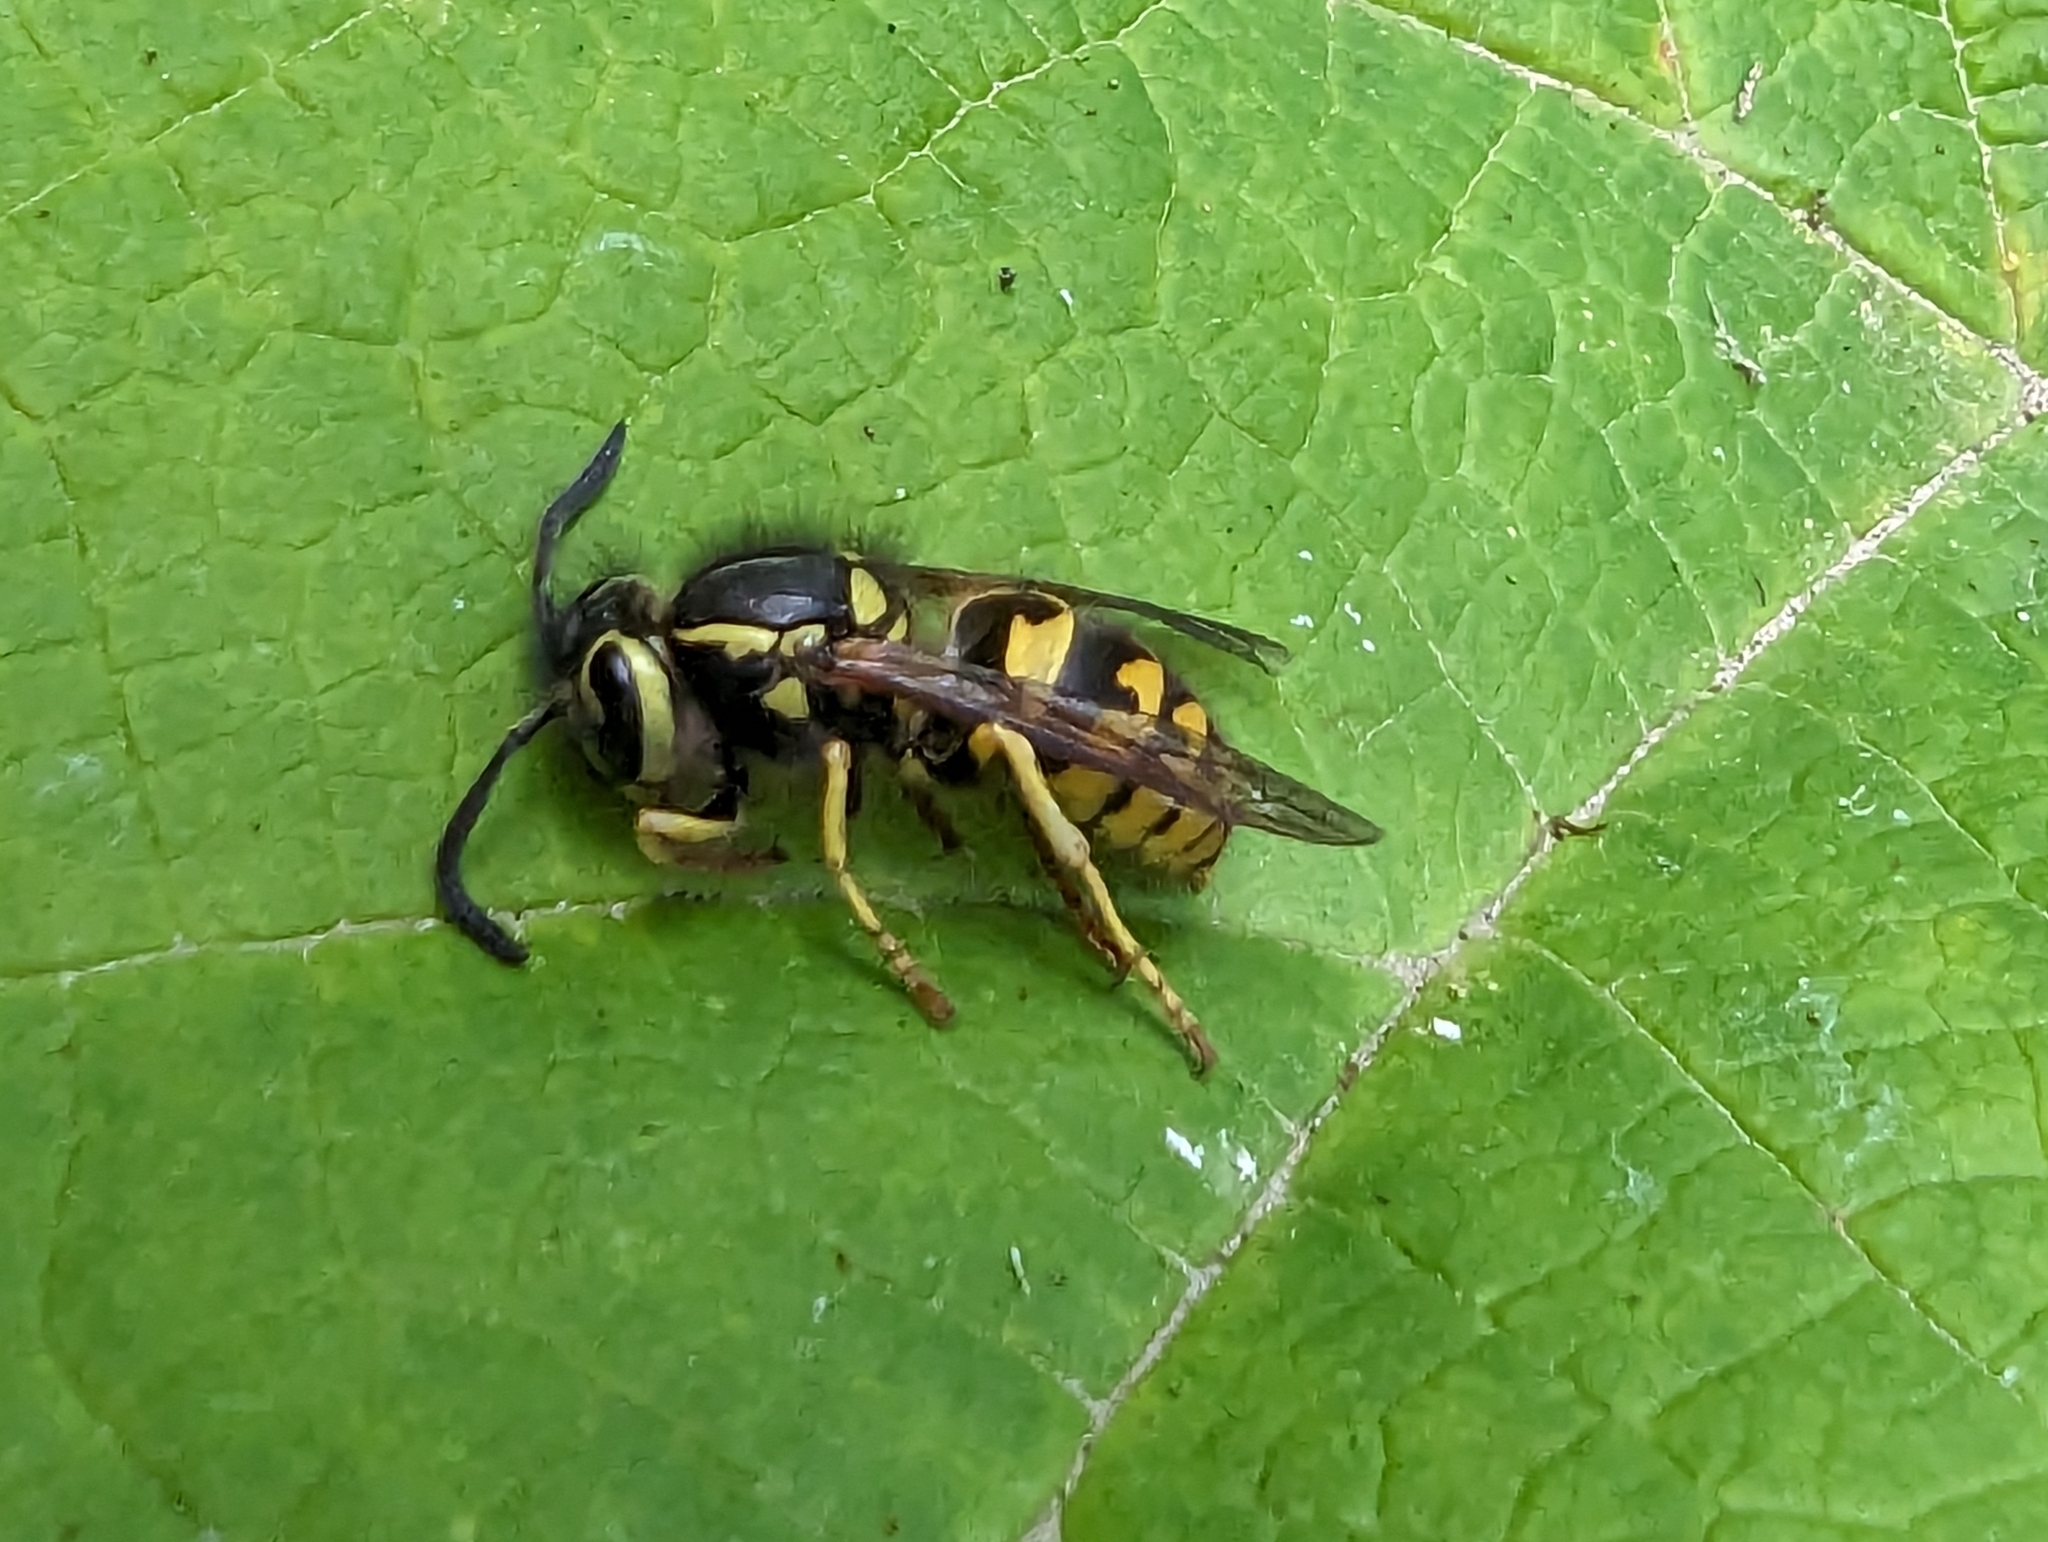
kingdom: Animalia
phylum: Arthropoda
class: Insecta
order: Hymenoptera
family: Vespidae
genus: Vespula
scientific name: Vespula pensylvanica
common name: Western yellowjacket
